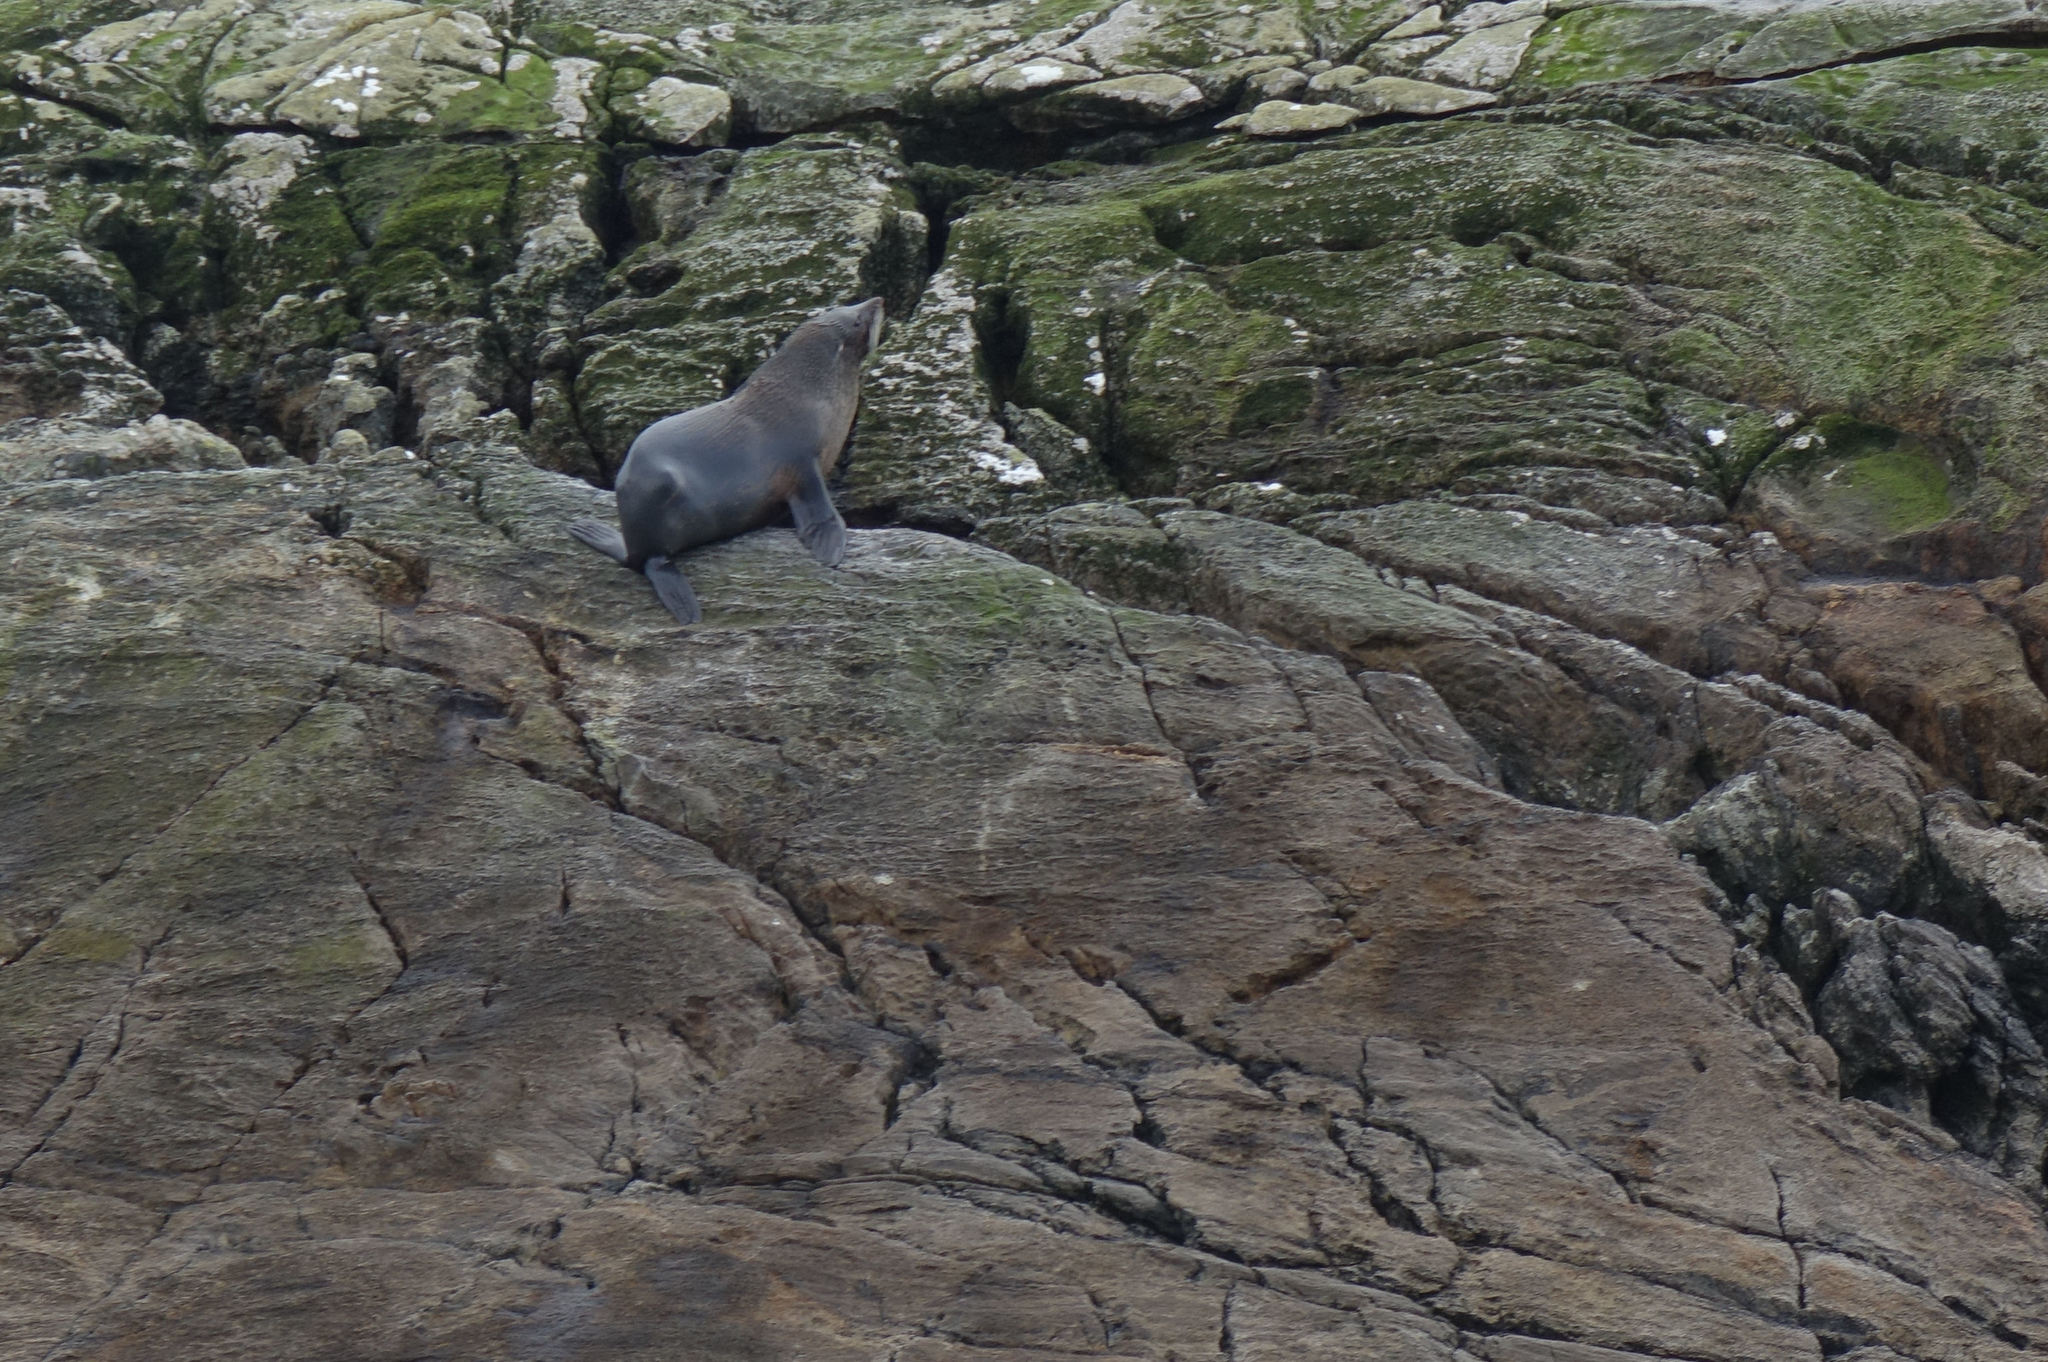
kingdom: Animalia
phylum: Chordata
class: Mammalia
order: Carnivora
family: Otariidae
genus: Arctocephalus
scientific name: Arctocephalus forsteri
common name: New zealand fur seal
